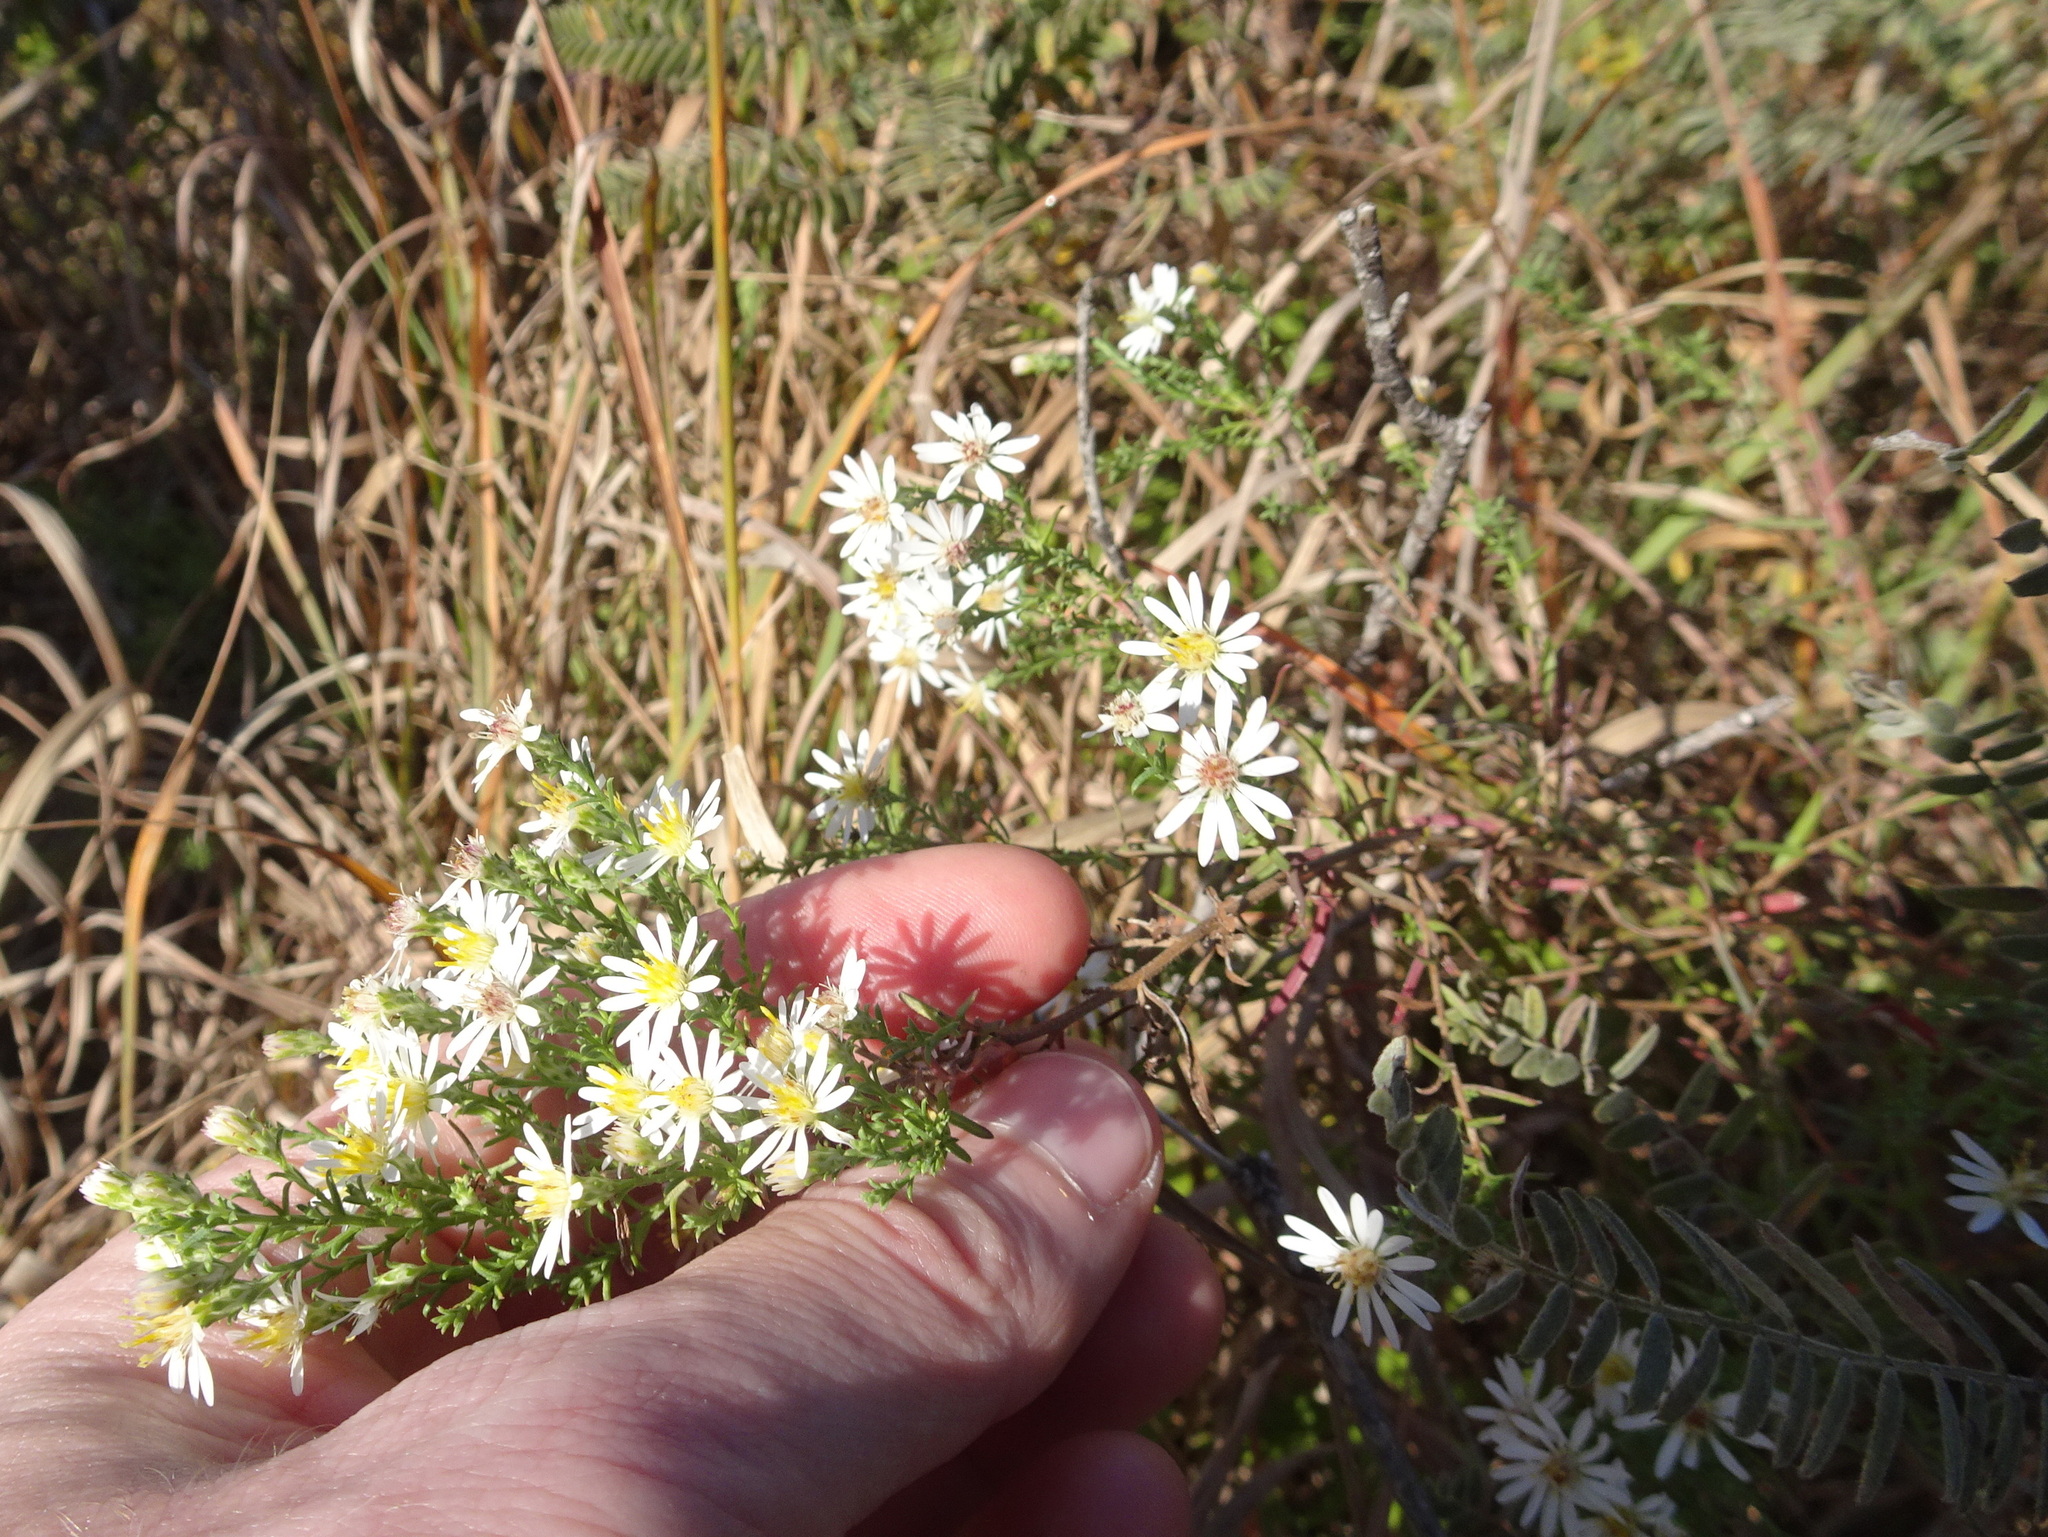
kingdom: Plantae
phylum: Tracheophyta
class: Magnoliopsida
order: Asterales
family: Asteraceae
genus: Symphyotrichum
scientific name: Symphyotrichum ericoides
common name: Heath aster
